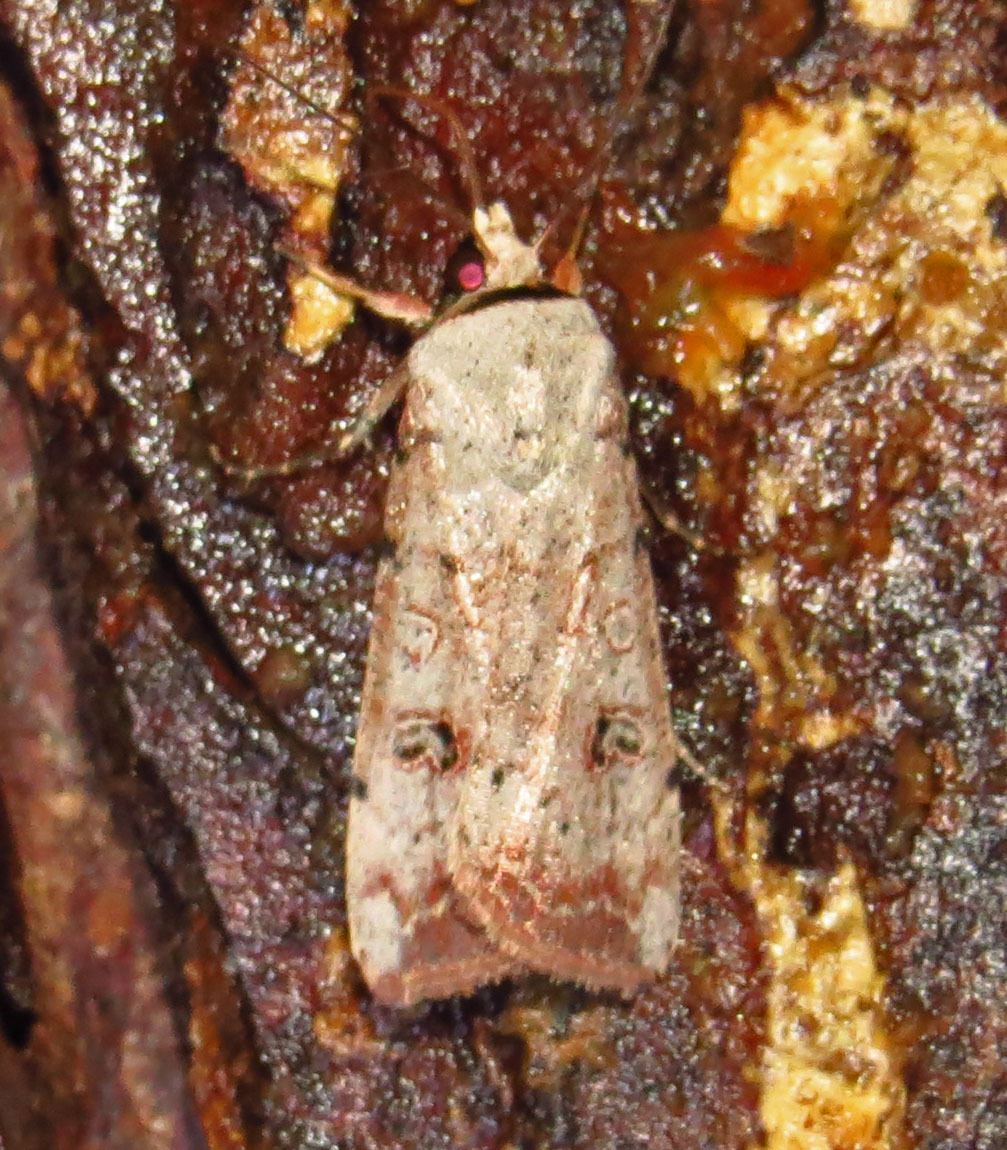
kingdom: Animalia
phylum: Arthropoda
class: Insecta
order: Lepidoptera
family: Noctuidae
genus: Anicla
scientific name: Anicla infecta
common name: Green cutworm
